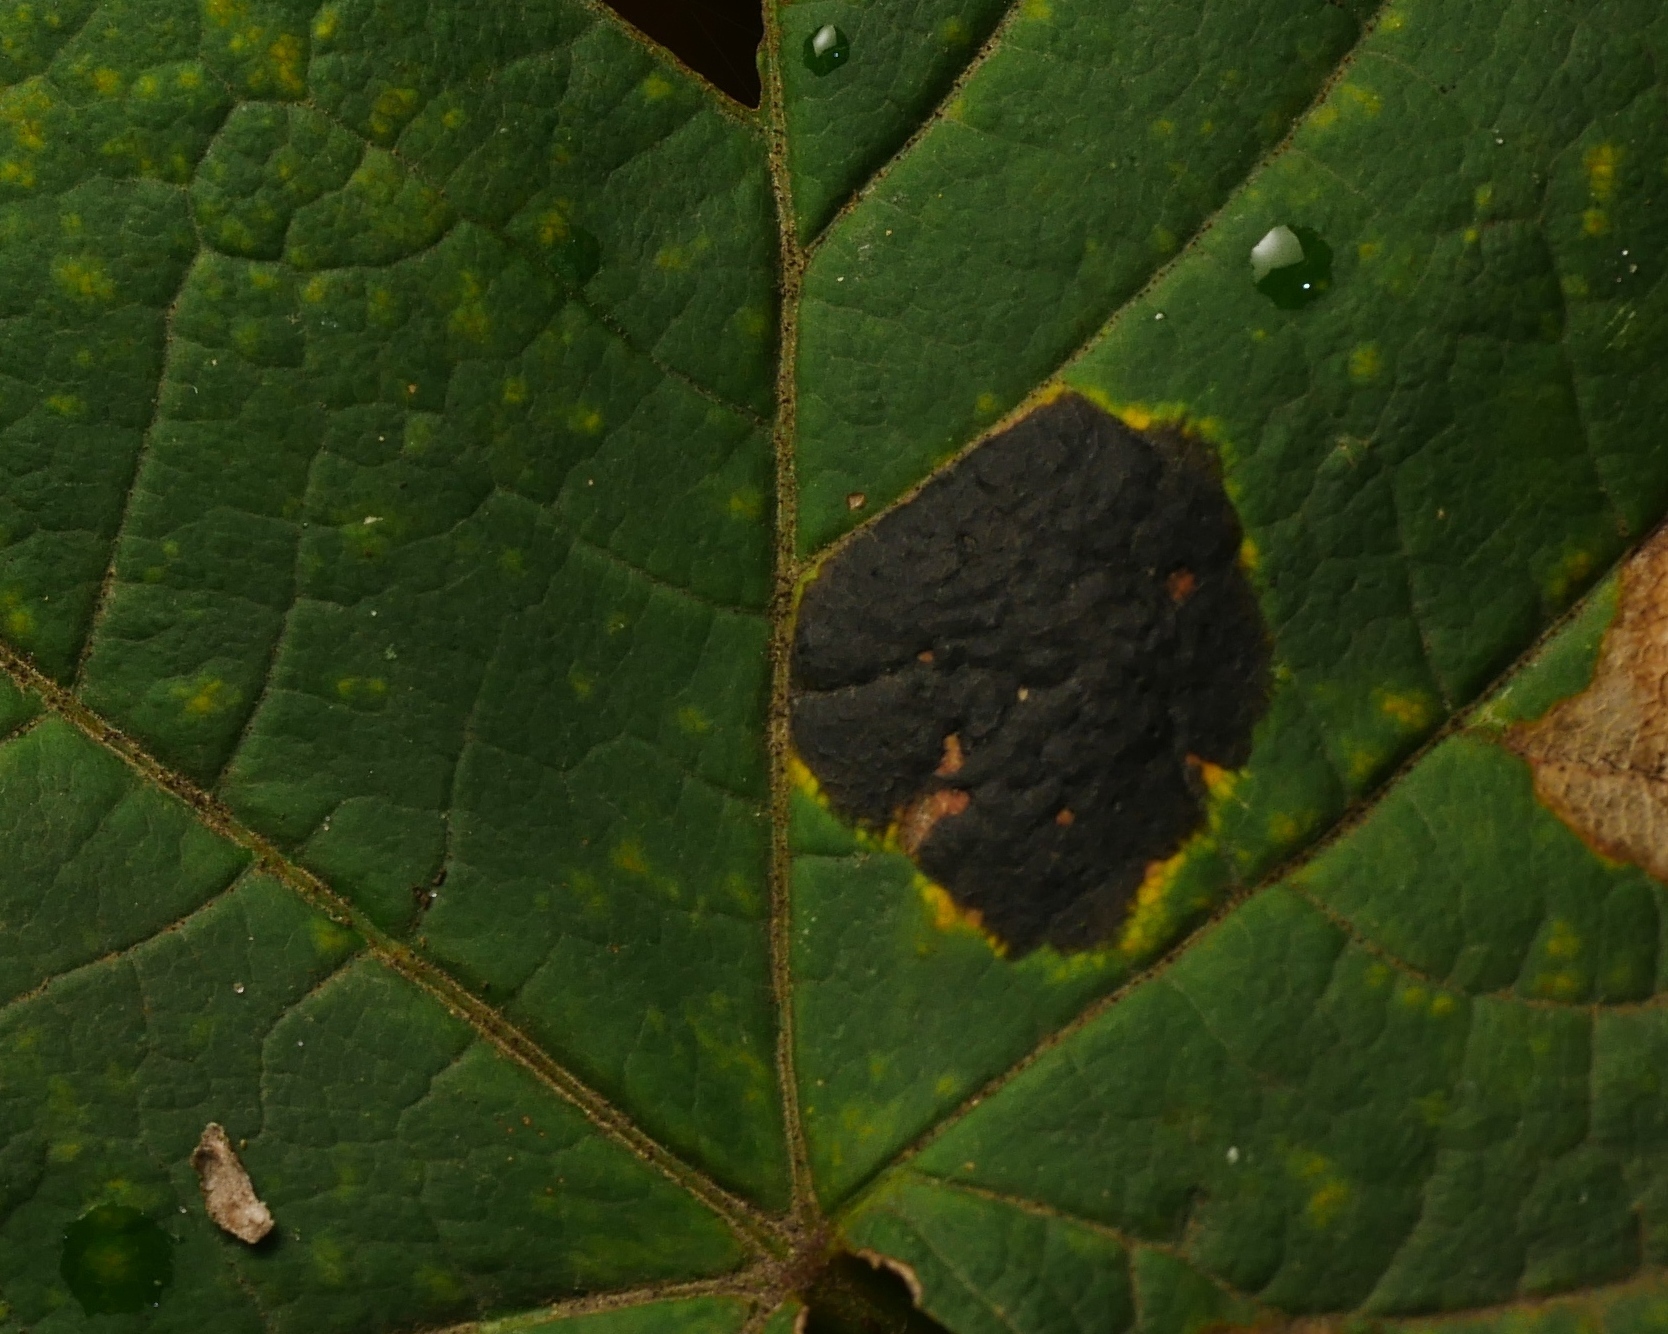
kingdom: Fungi
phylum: Ascomycota
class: Leotiomycetes
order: Rhytismatales
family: Rhytismataceae
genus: Rhytisma
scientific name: Rhytisma acerinum
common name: European tar spot
